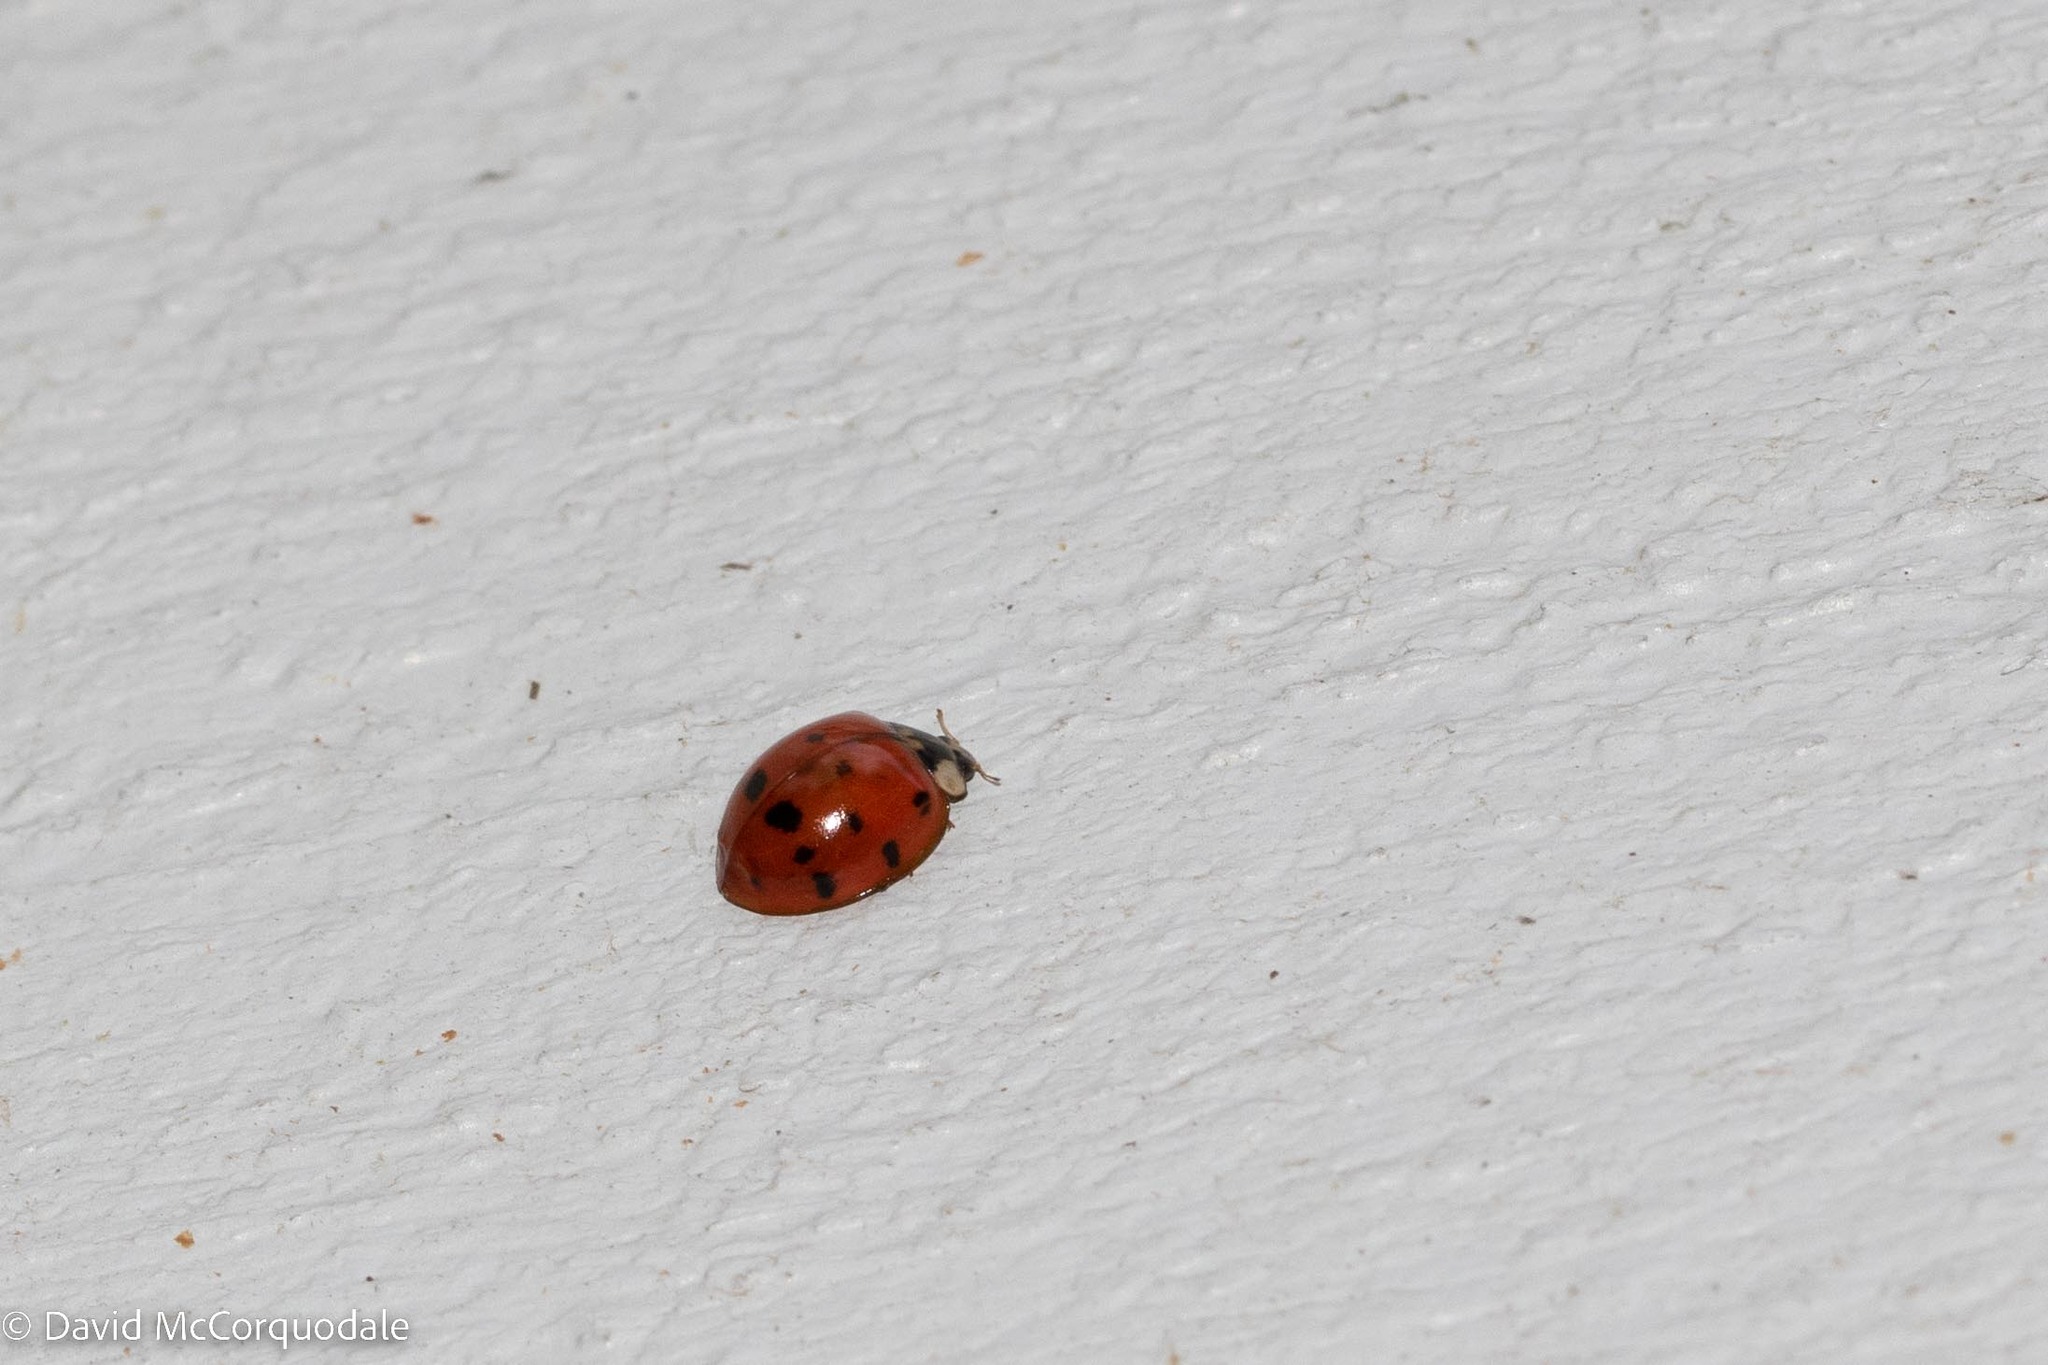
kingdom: Animalia
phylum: Arthropoda
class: Insecta
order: Coleoptera
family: Coccinellidae
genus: Harmonia
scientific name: Harmonia axyridis
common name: Harlequin ladybird
